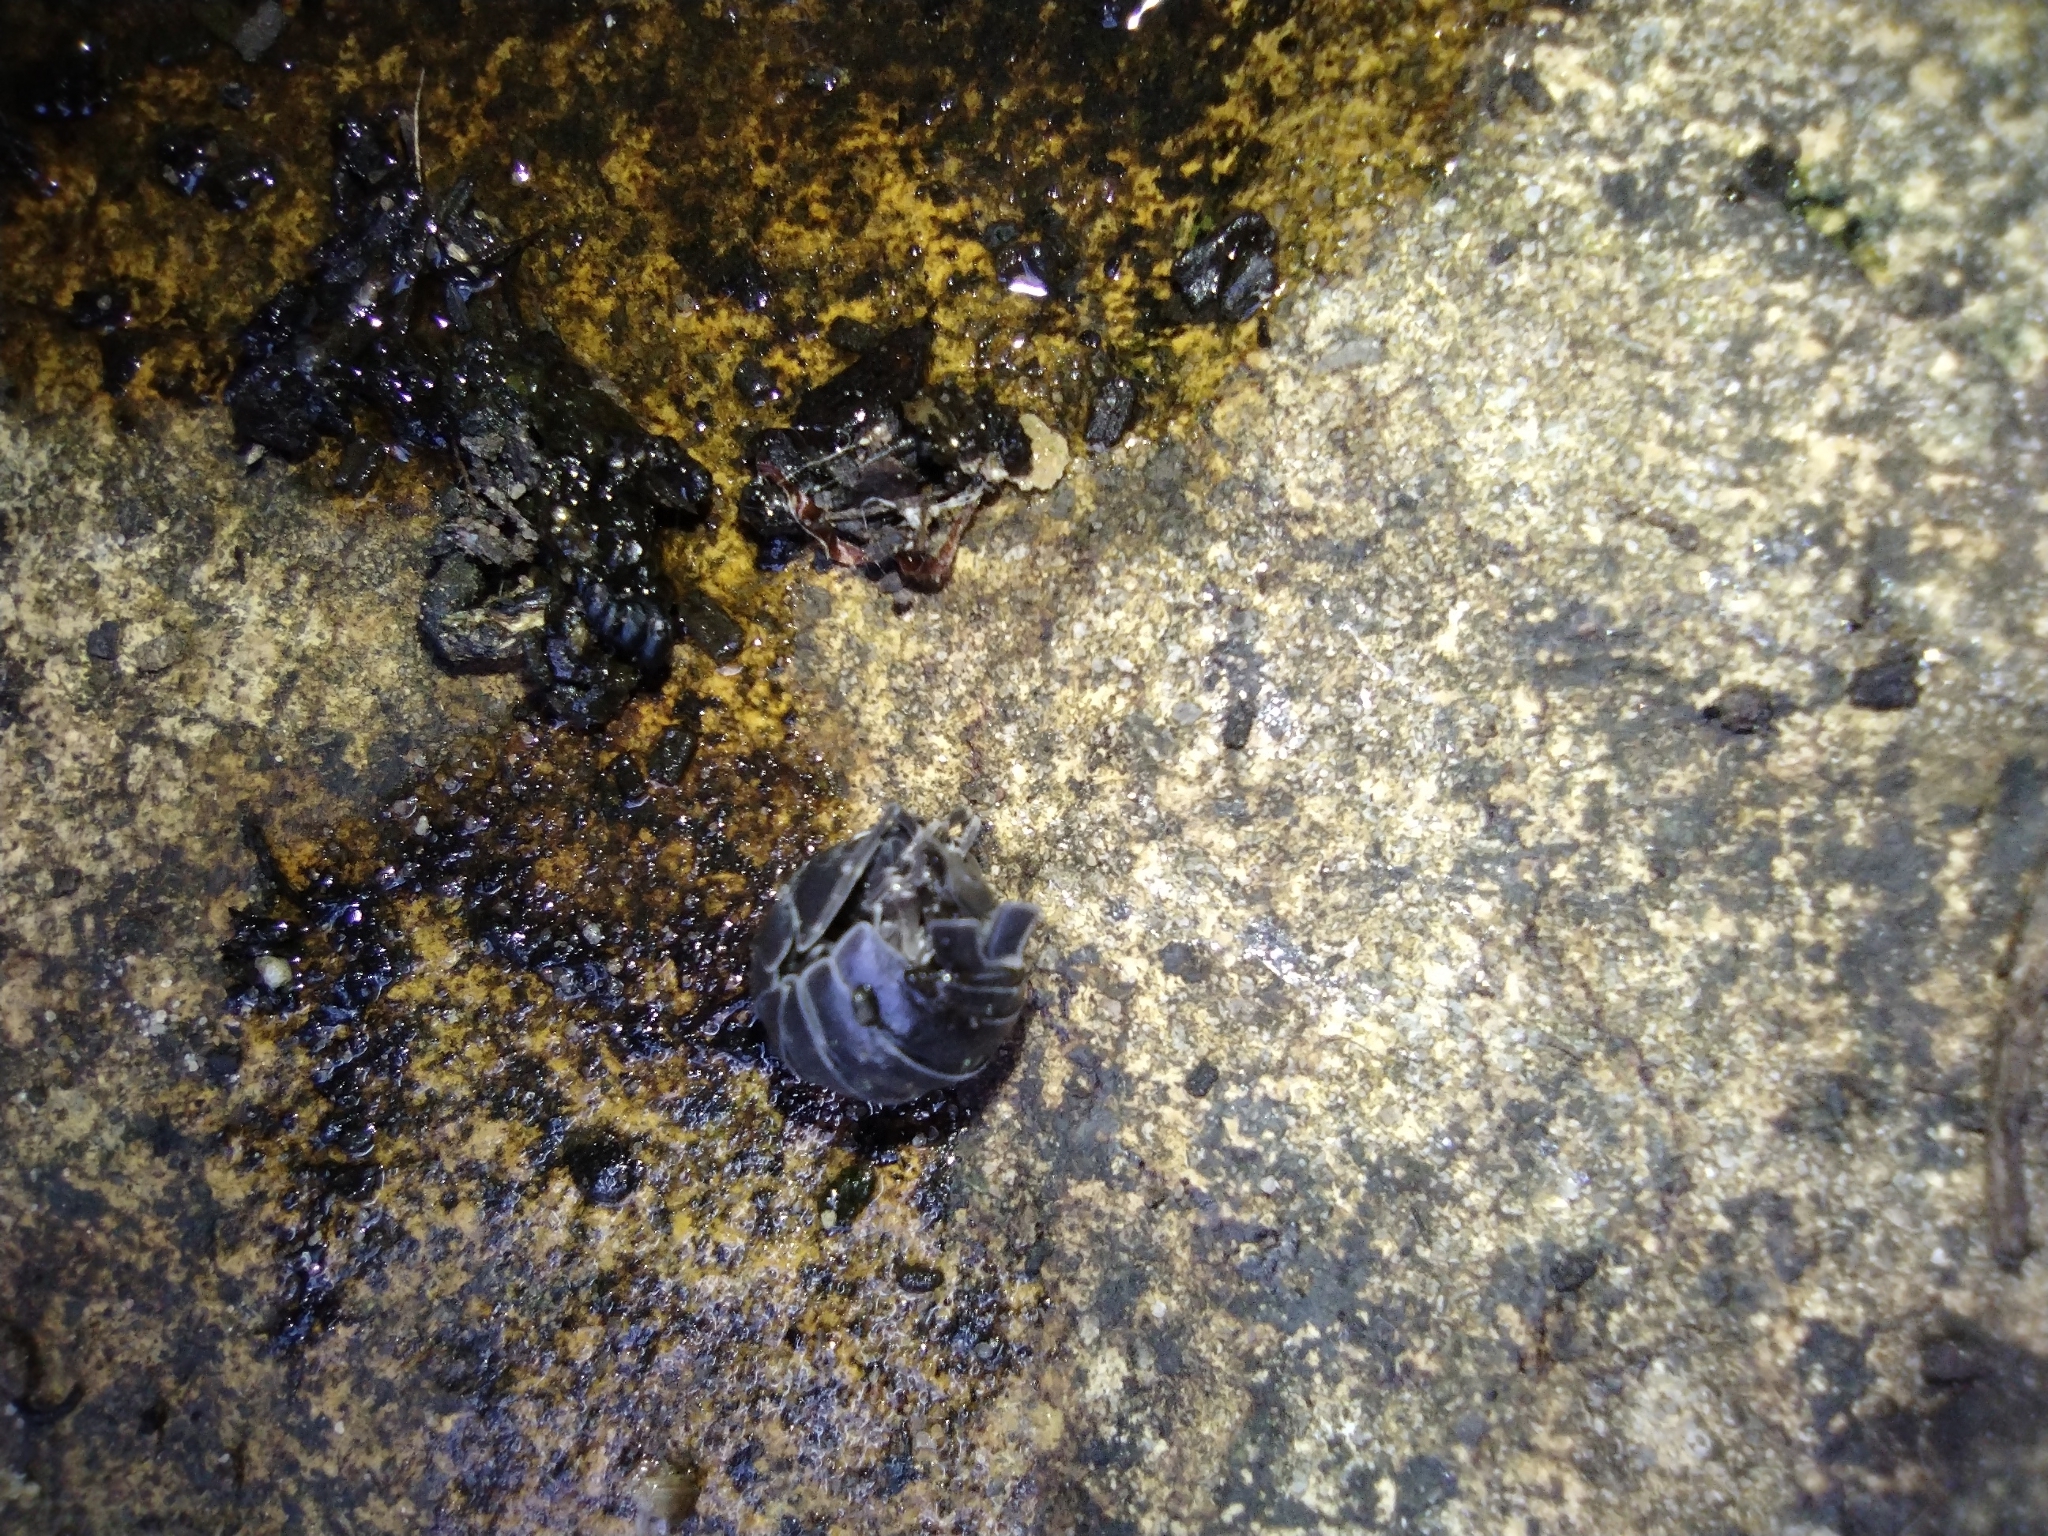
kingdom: Animalia
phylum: Arthropoda
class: Malacostraca
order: Isopoda
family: Armadillidiidae
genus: Armadillidium
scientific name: Armadillidium
